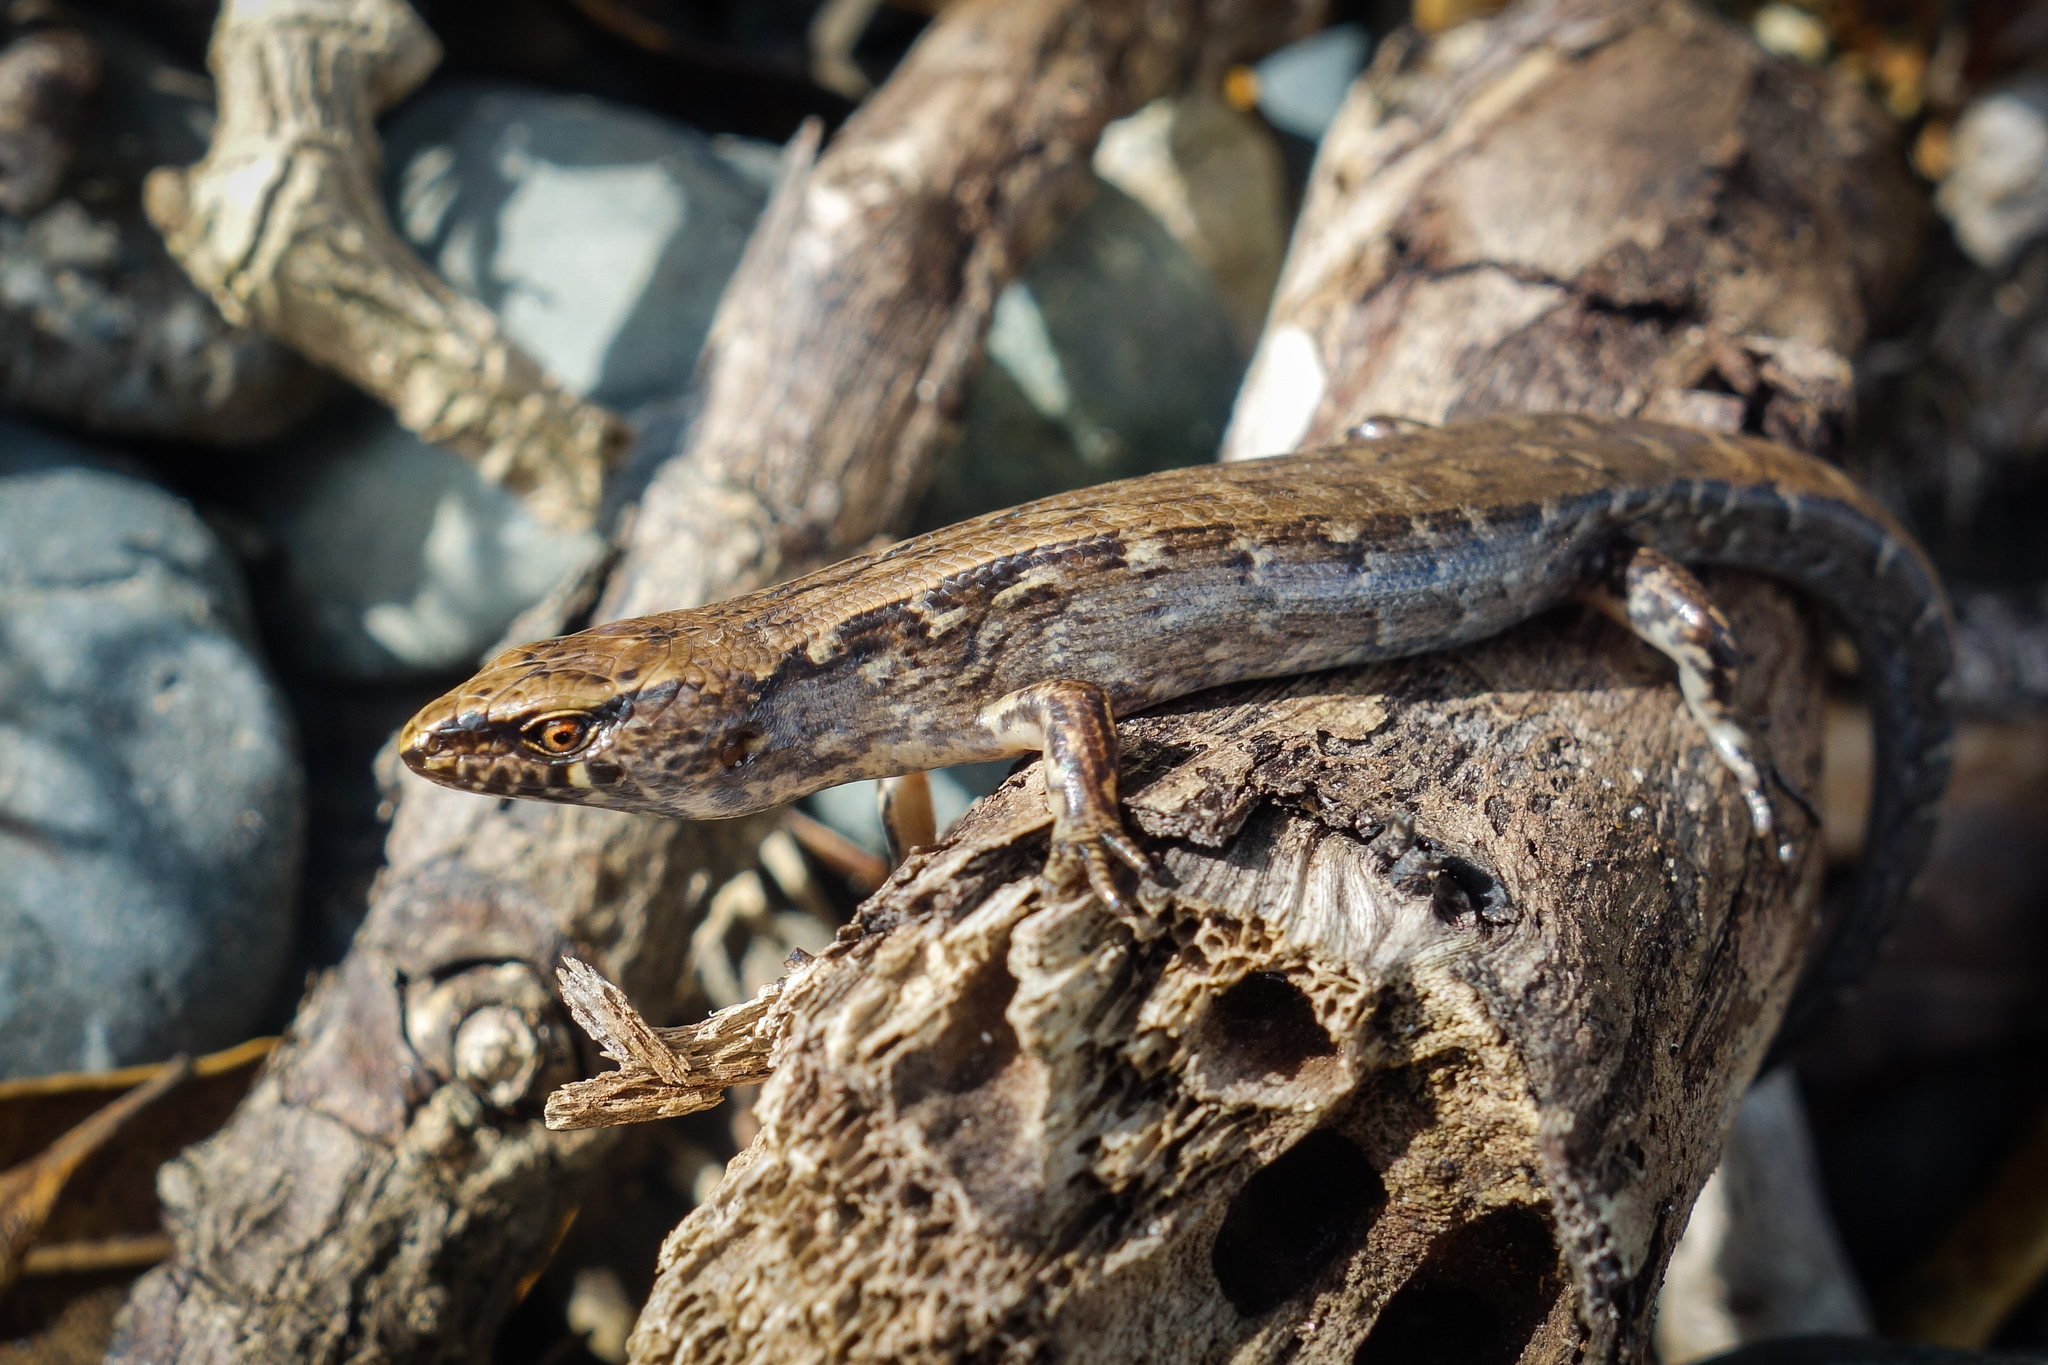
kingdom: Animalia
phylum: Chordata
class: Squamata
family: Scincidae
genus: Oligosoma
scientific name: Oligosoma ornatum
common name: Gray's ornate skink
